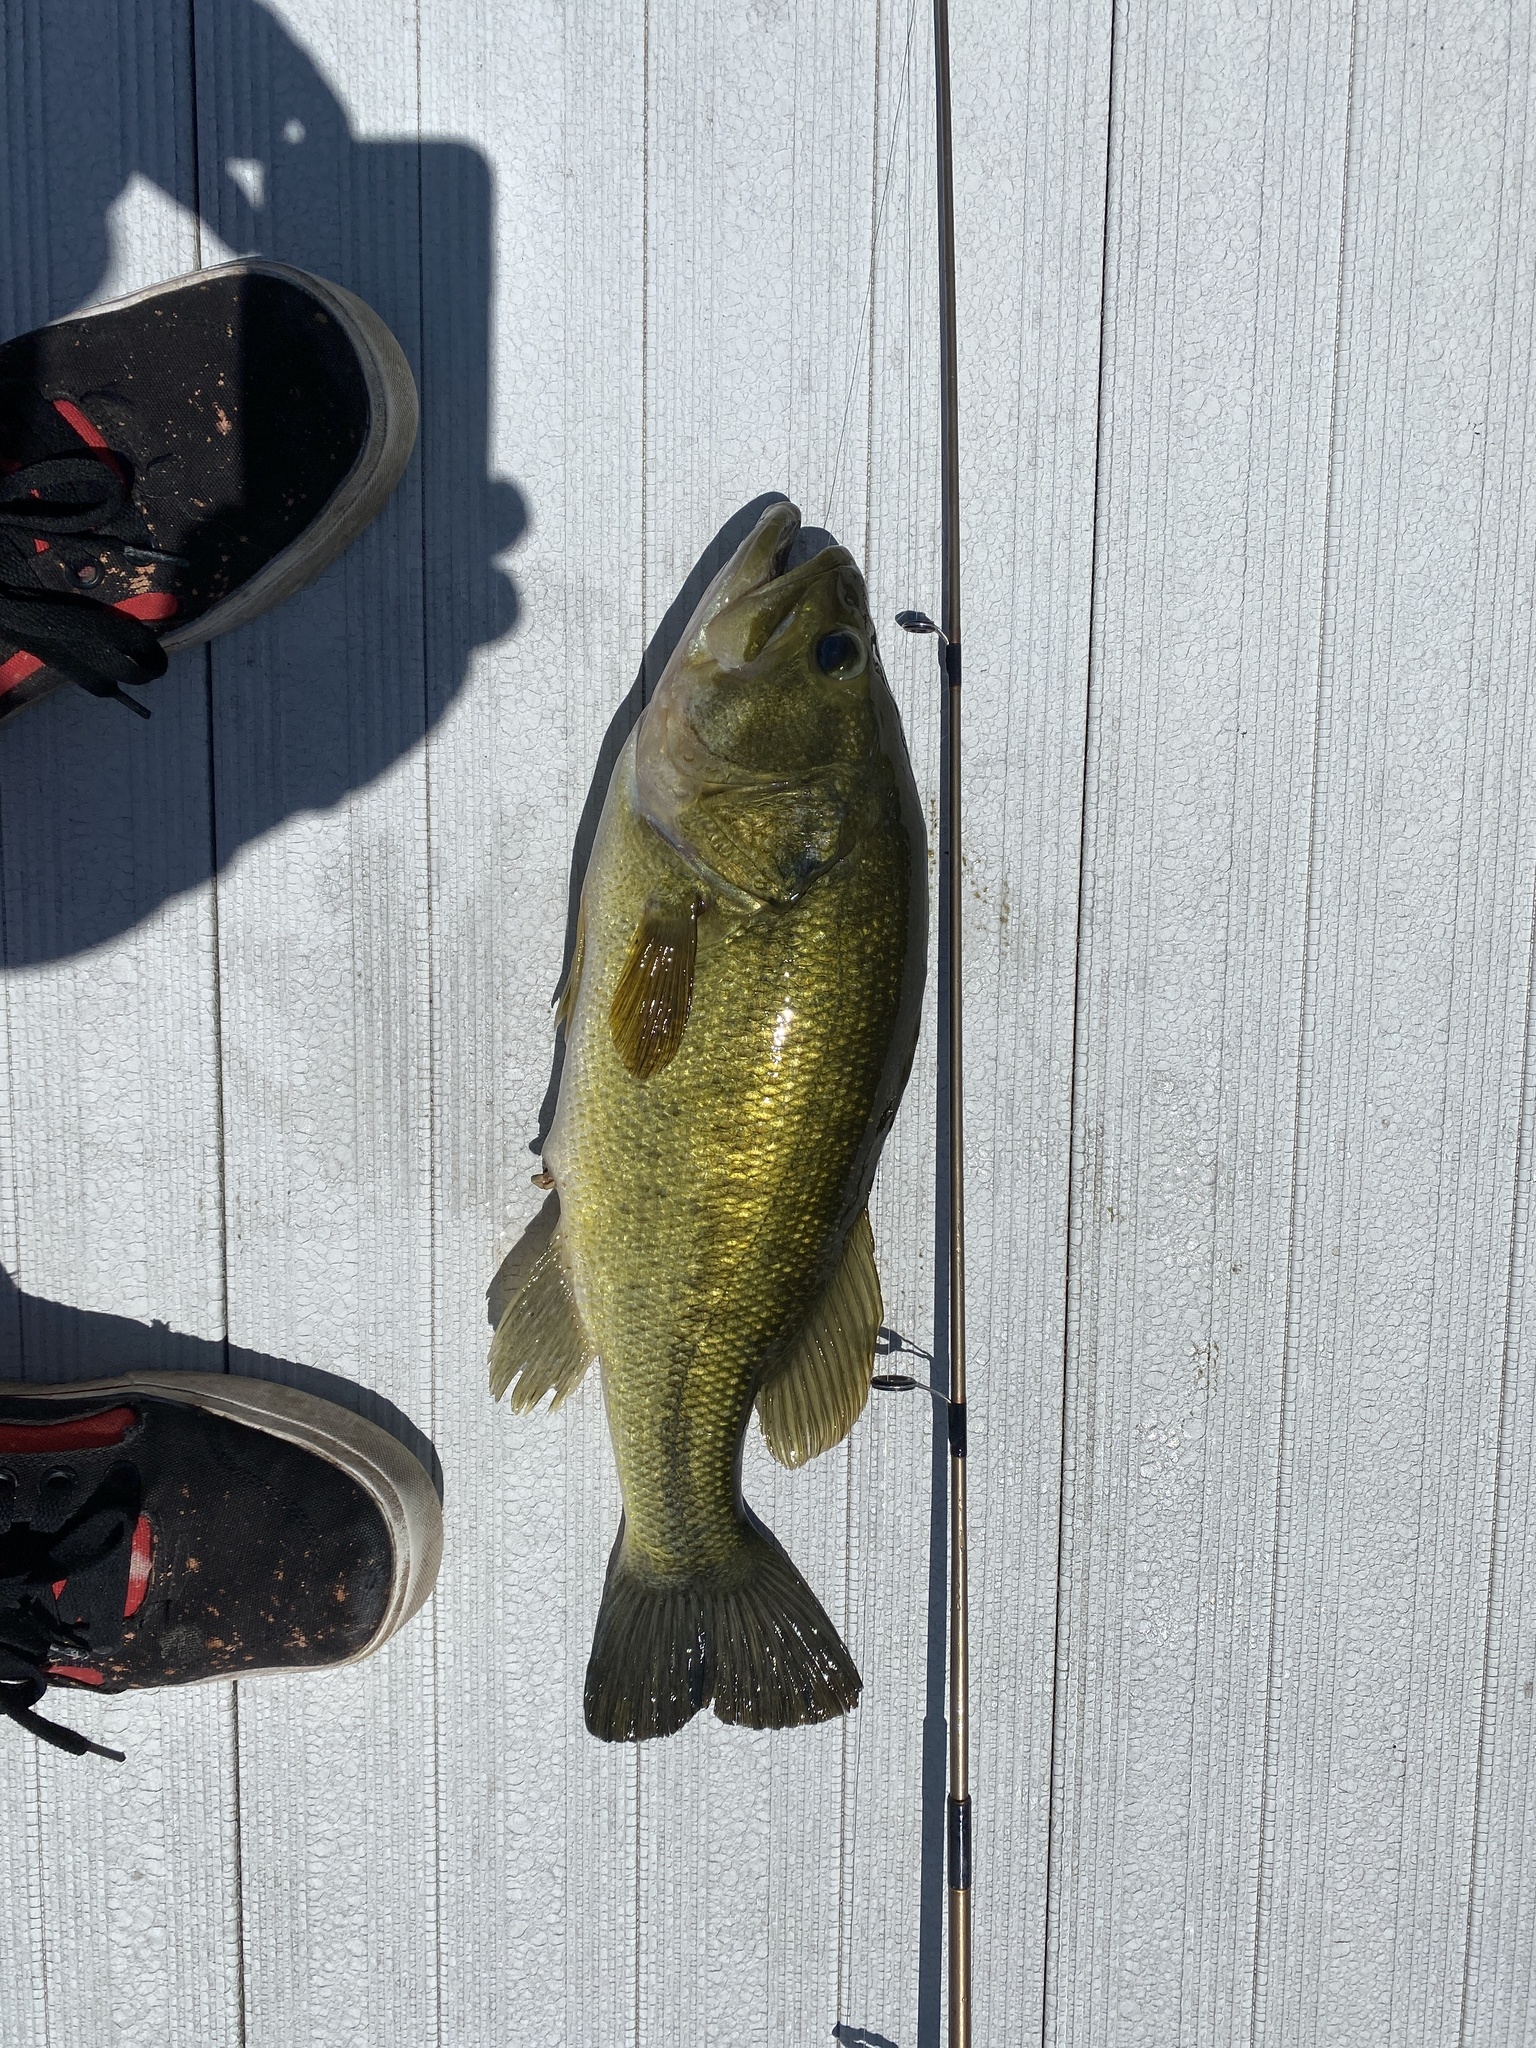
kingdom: Animalia
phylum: Chordata
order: Perciformes
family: Centrarchidae
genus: Micropterus
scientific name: Micropterus
